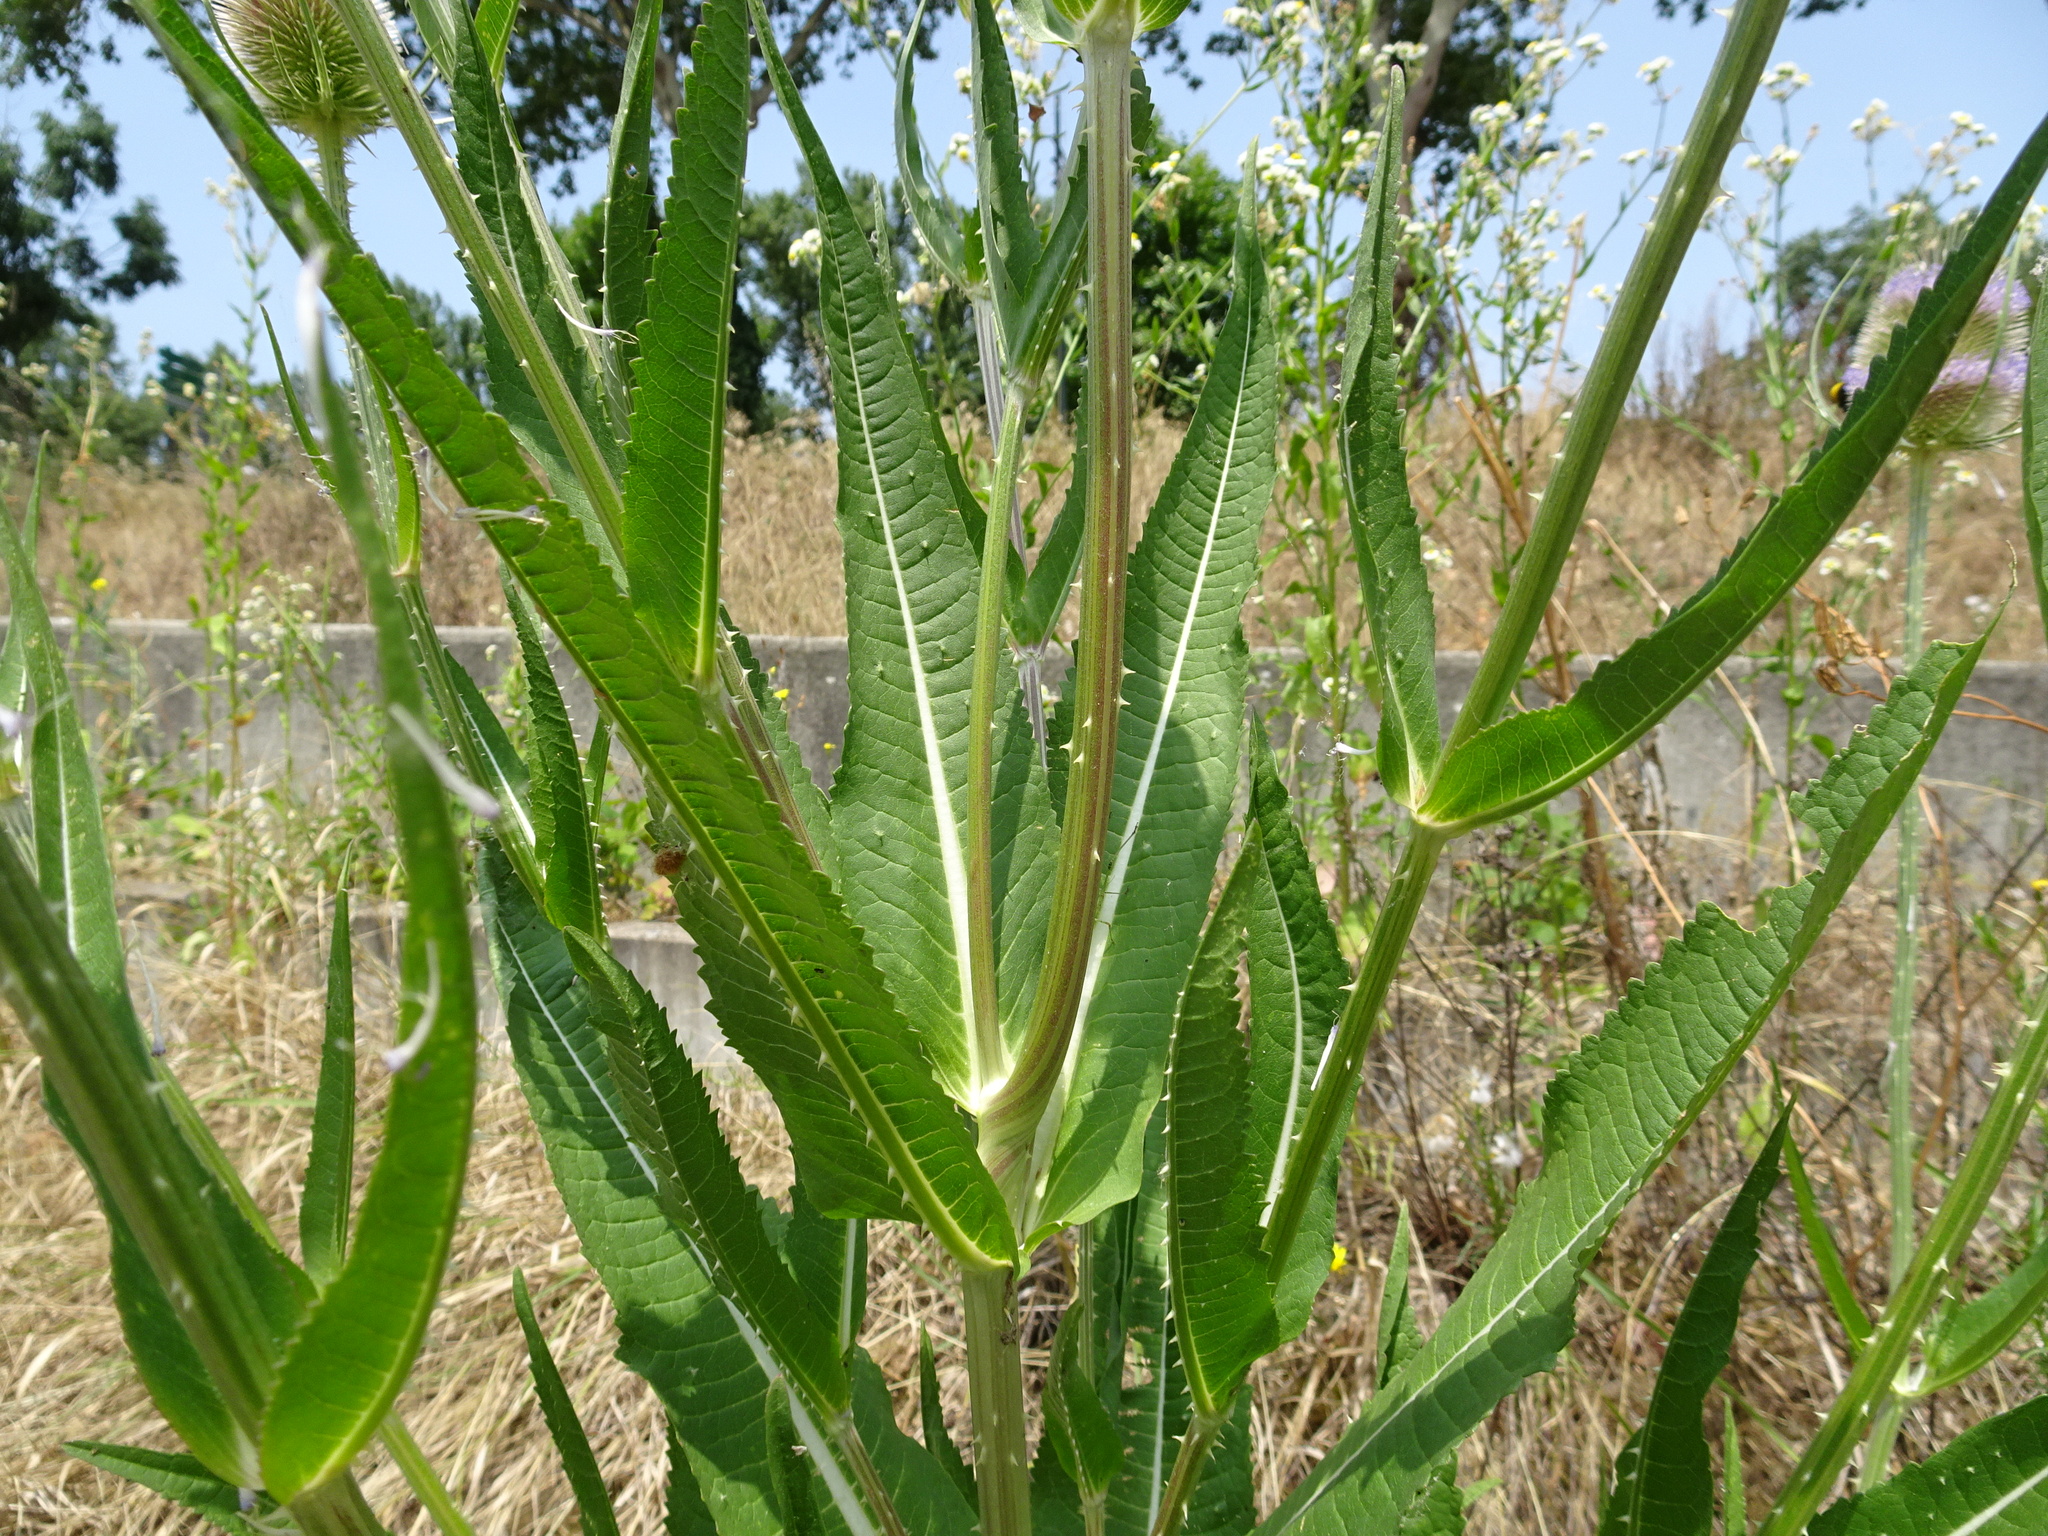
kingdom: Plantae
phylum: Tracheophyta
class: Magnoliopsida
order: Dipsacales
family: Caprifoliaceae
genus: Dipsacus
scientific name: Dipsacus fullonum
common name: Teasel
